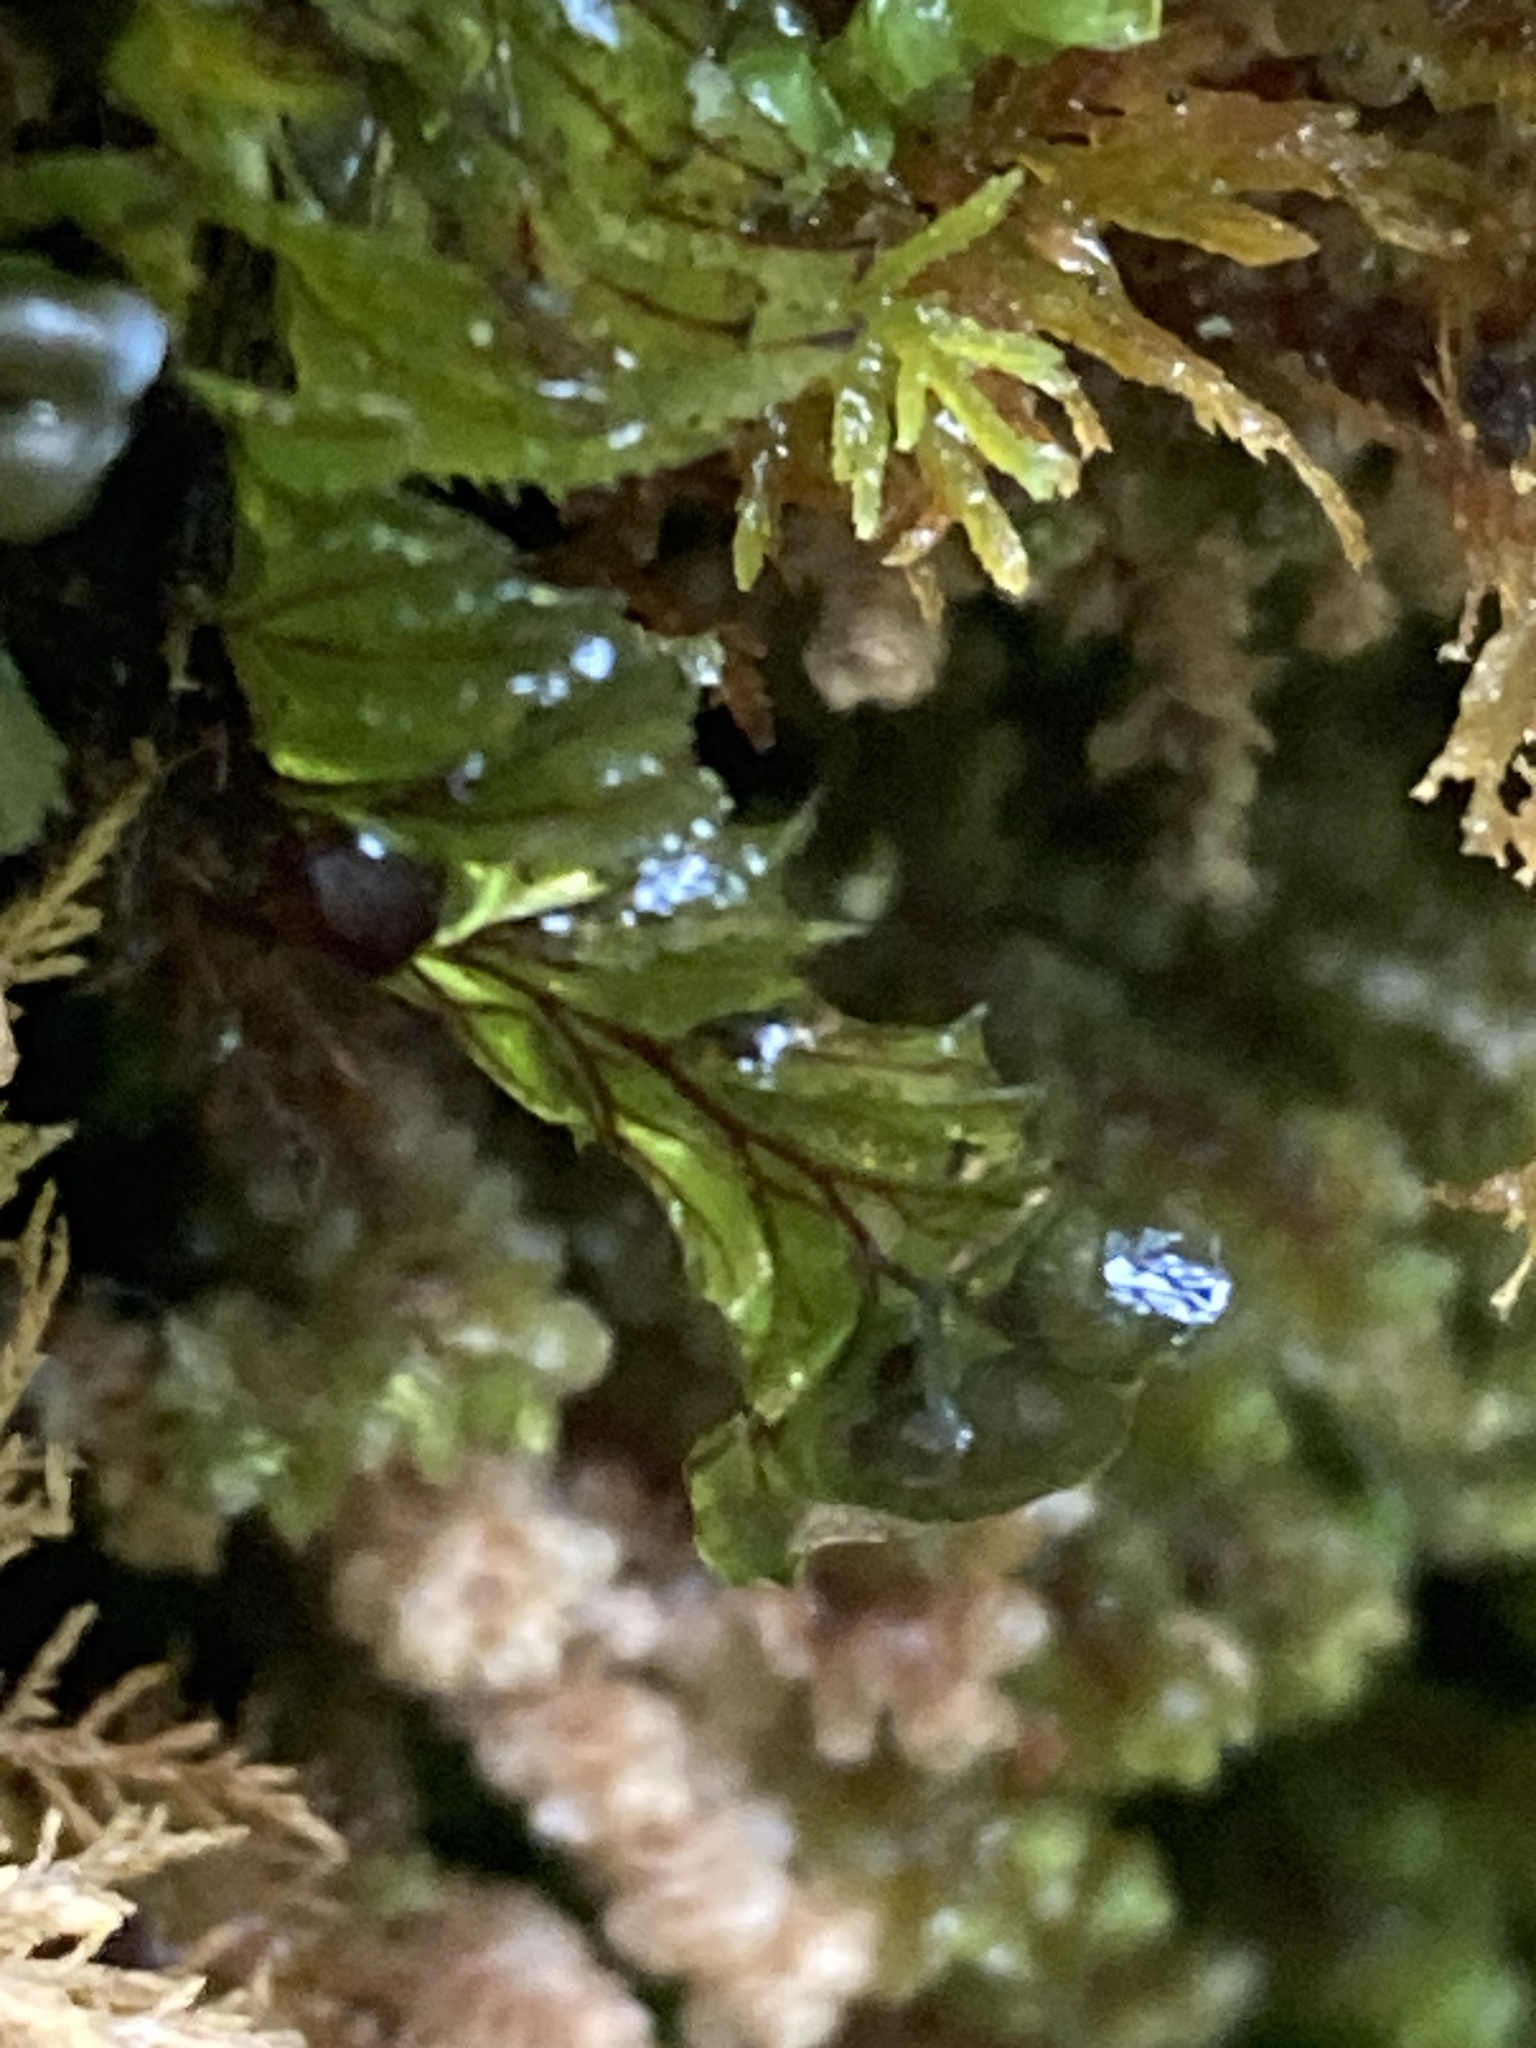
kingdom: Plantae
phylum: Tracheophyta
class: Polypodiopsida
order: Hymenophyllales
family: Hymenophyllaceae
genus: Hymenophyllum
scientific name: Hymenophyllum wilsonii
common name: Wilson's filmy fern
